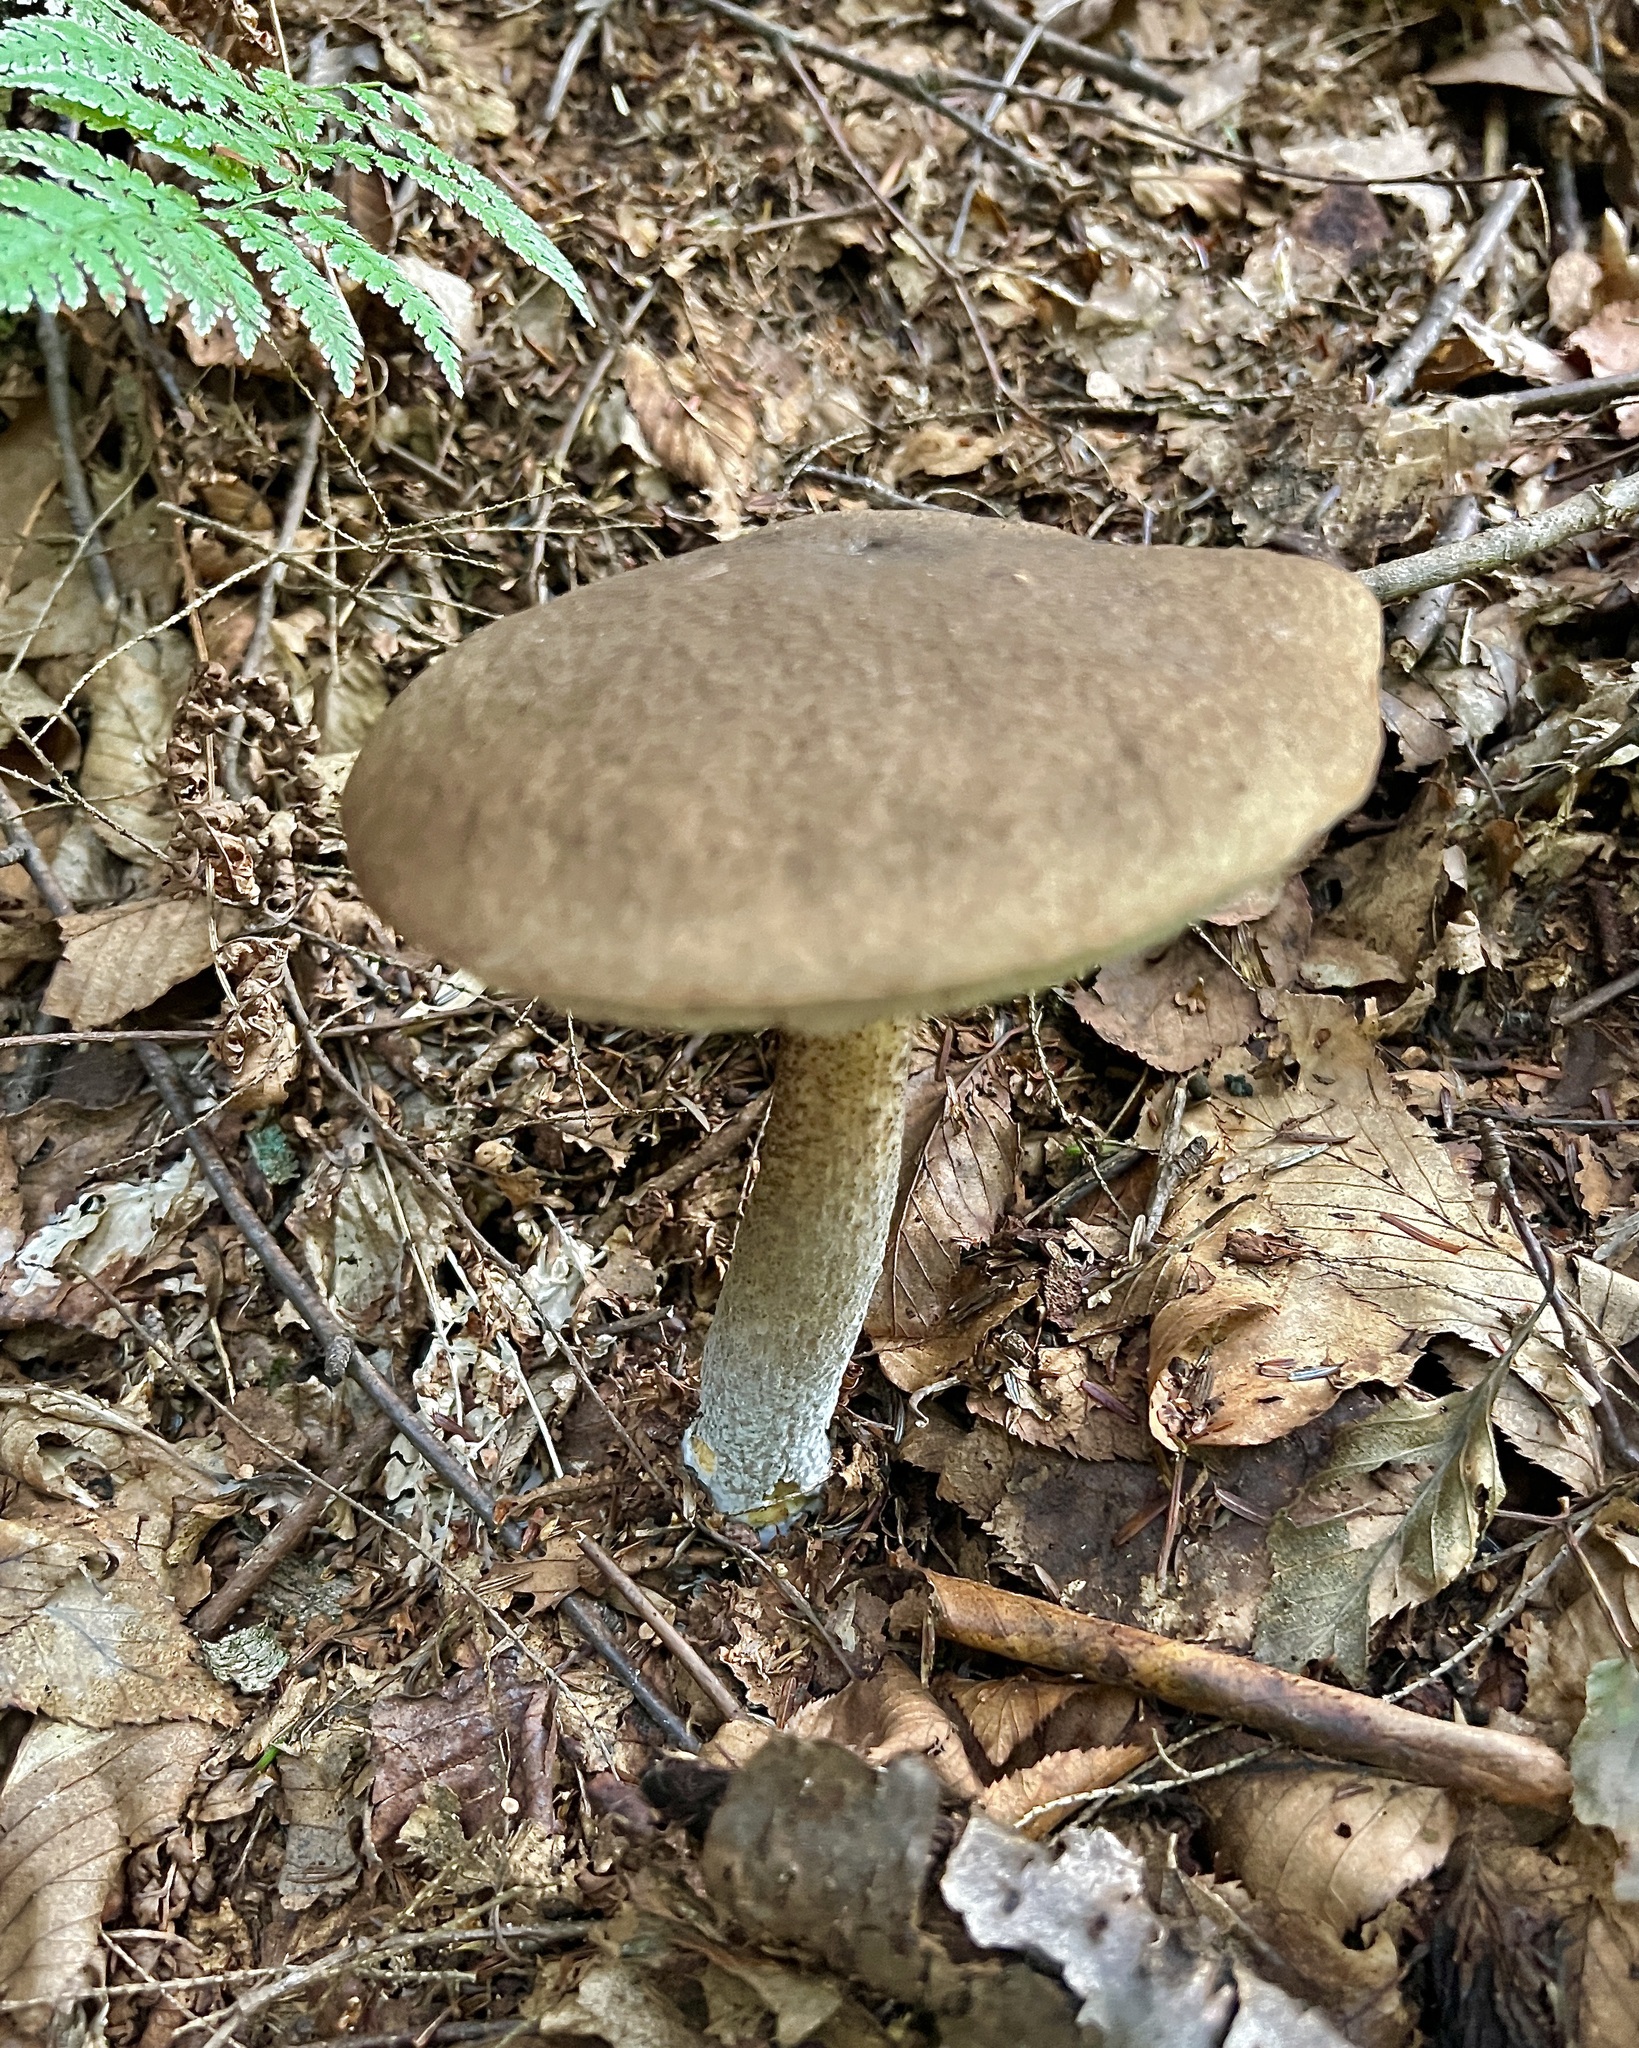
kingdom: Fungi
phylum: Basidiomycota
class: Agaricomycetes
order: Boletales
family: Boletaceae
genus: Leccinum
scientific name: Leccinum variicolor
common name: Mottled bolete
